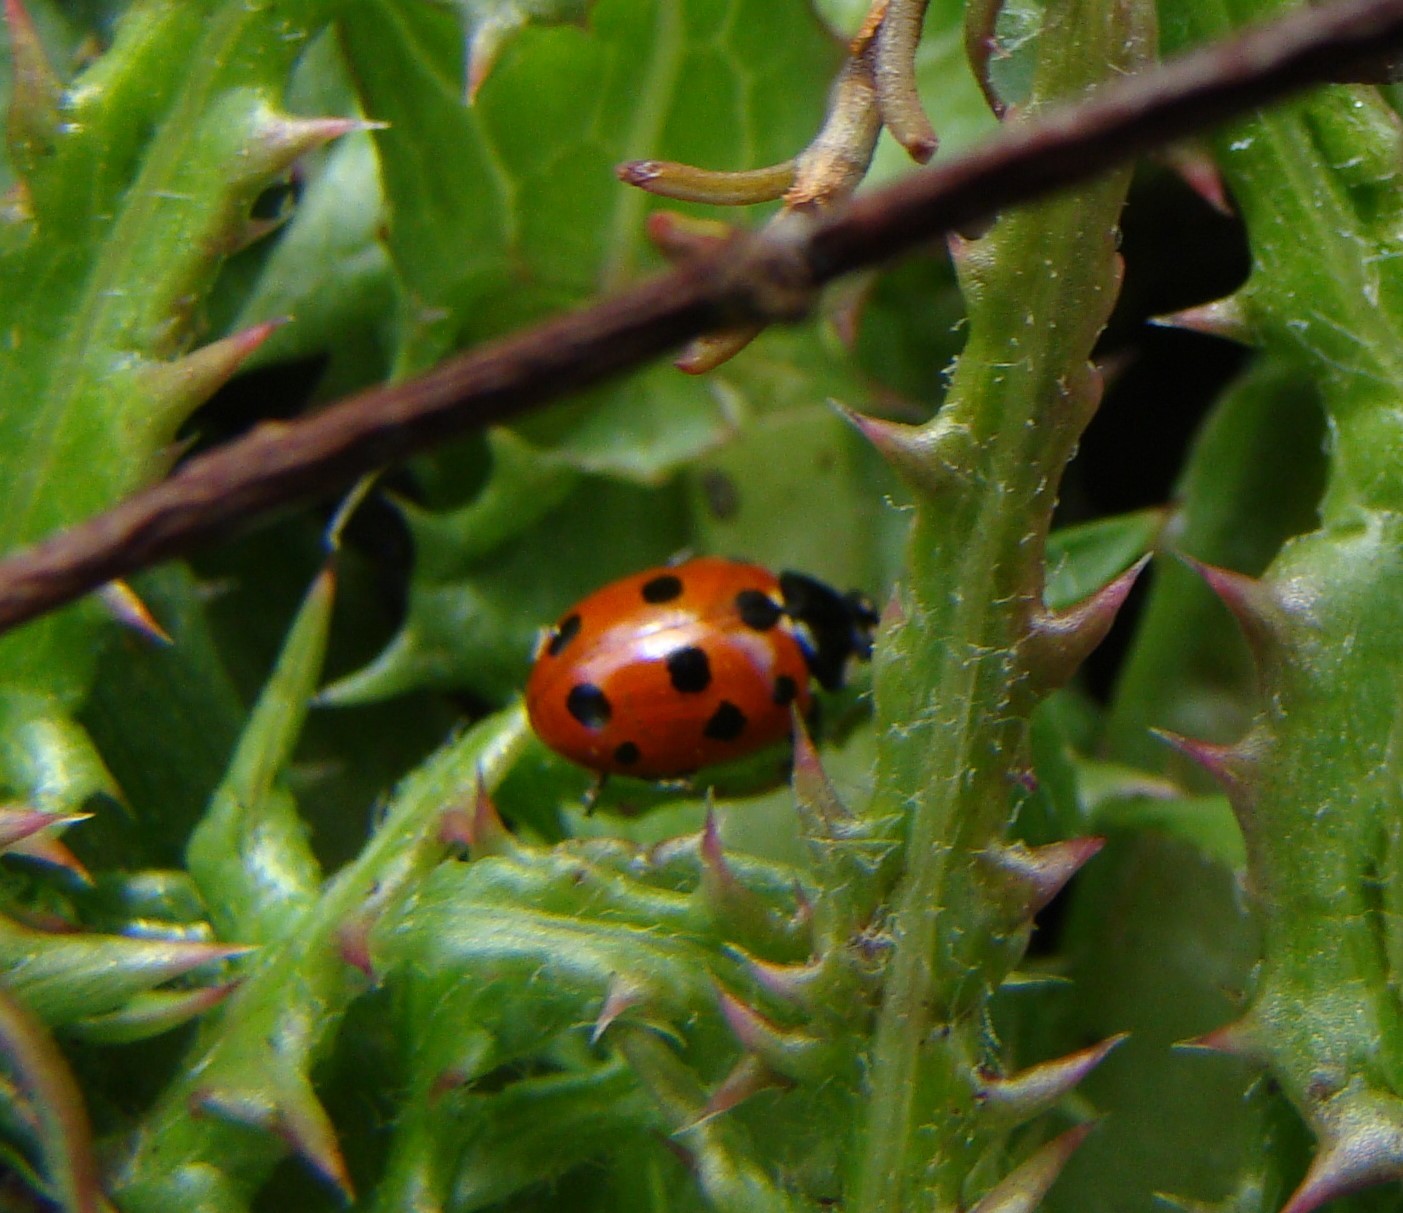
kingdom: Animalia
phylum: Arthropoda
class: Insecta
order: Coleoptera
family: Coccinellidae
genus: Coccinella
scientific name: Coccinella undecimpunctata
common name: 11-spot ladybird
